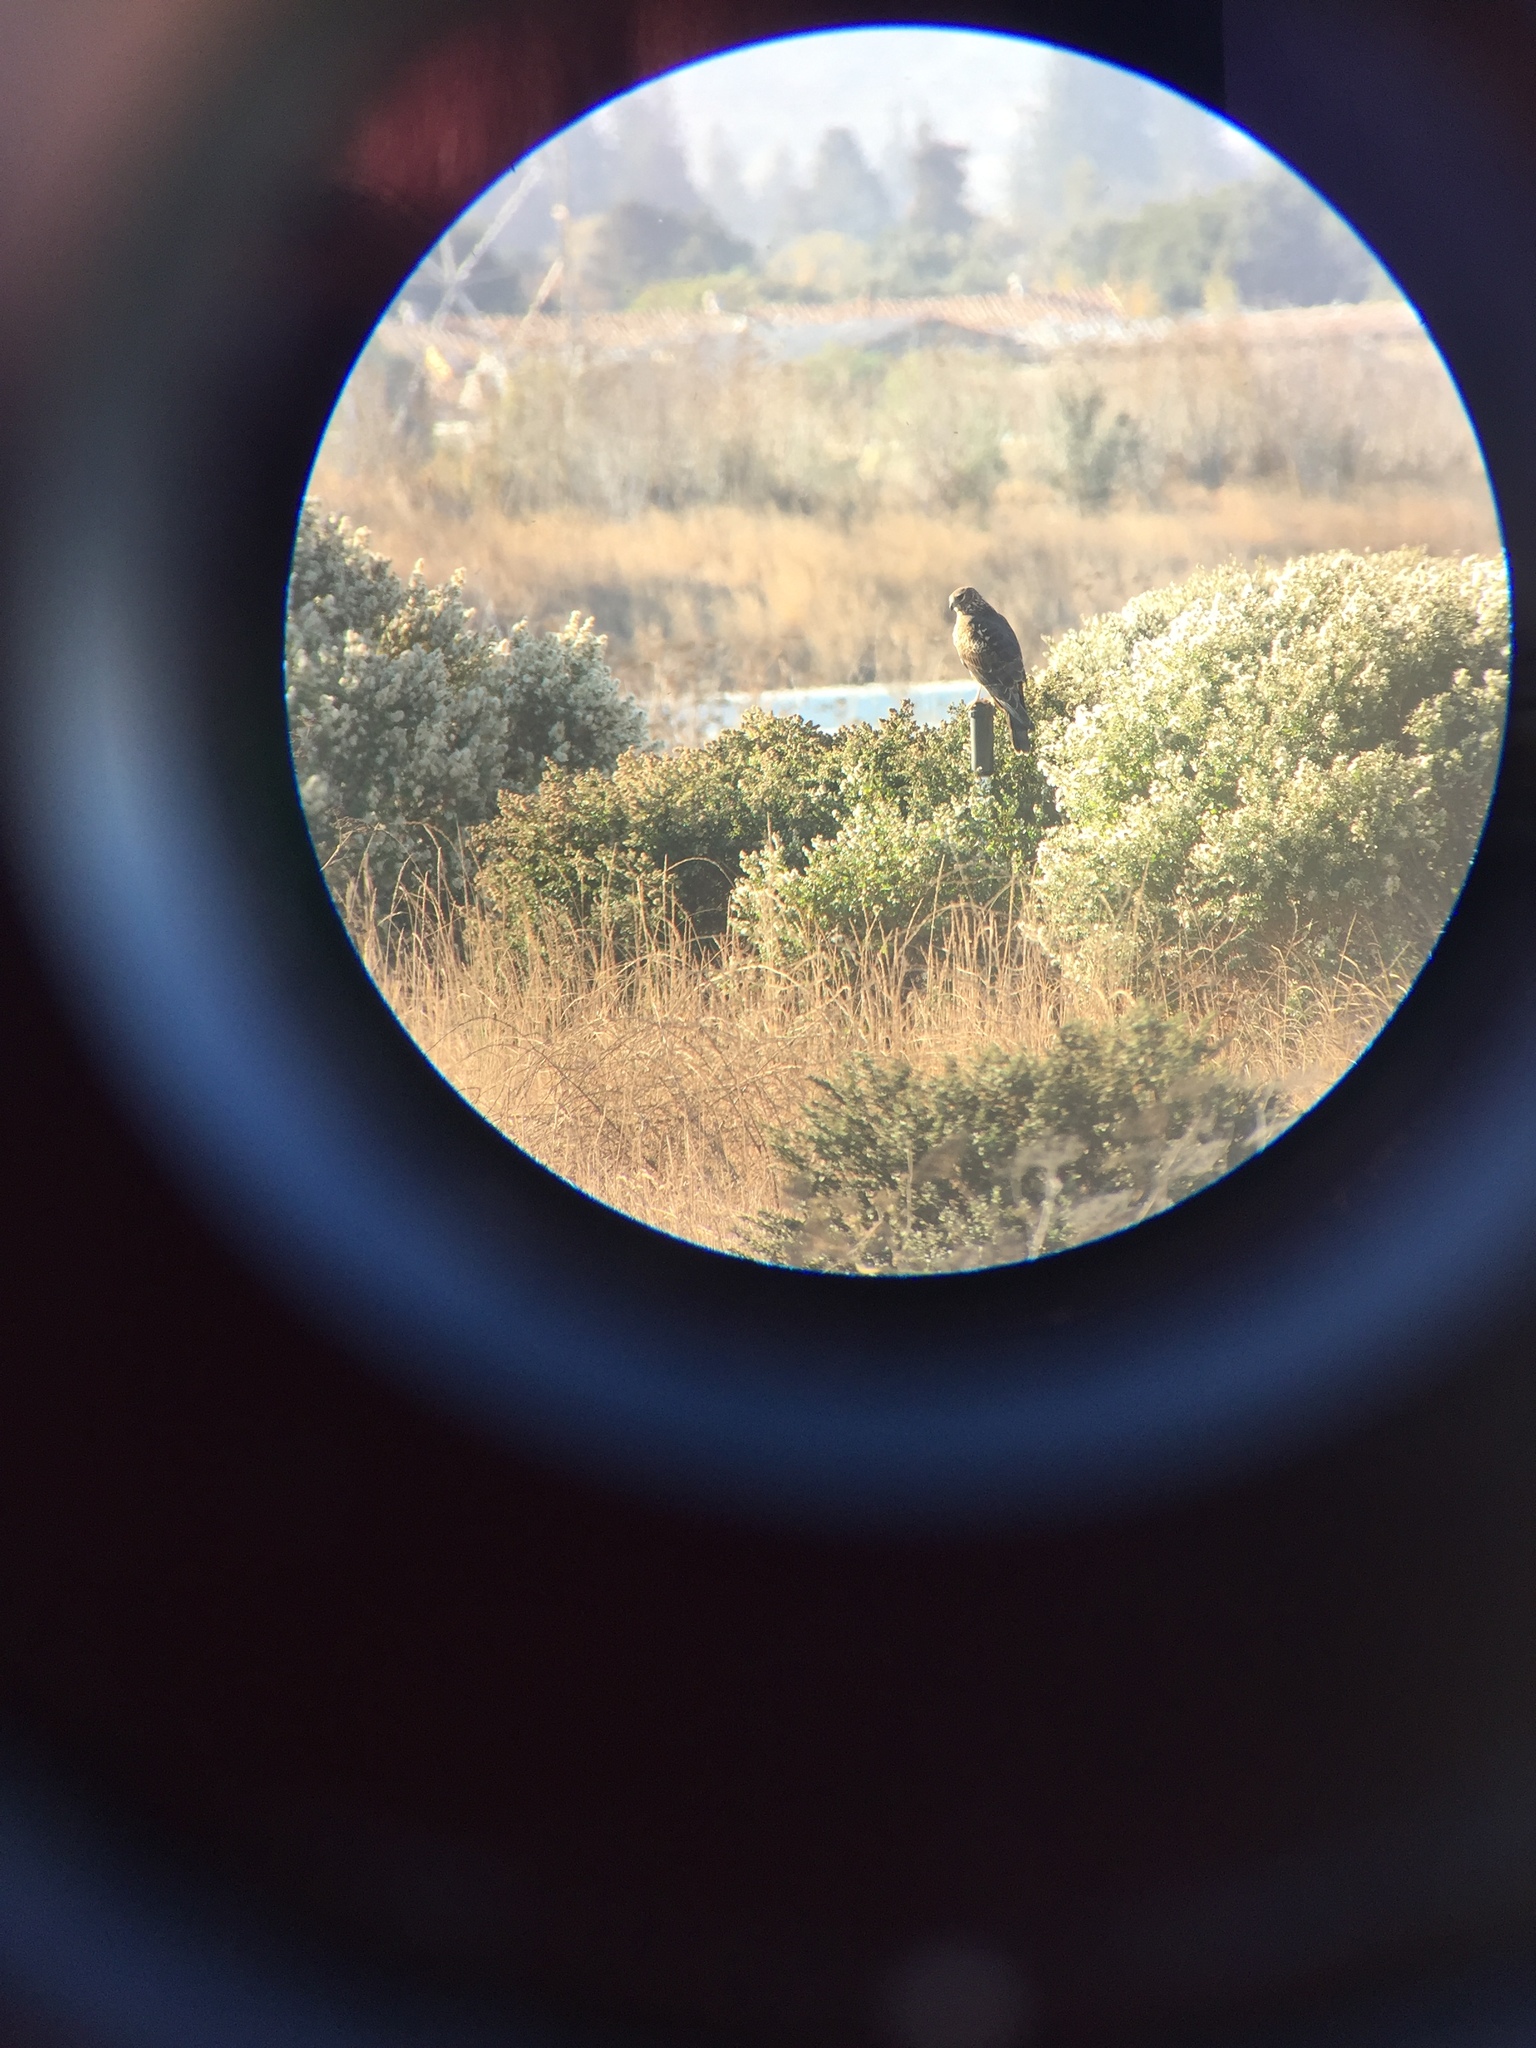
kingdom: Animalia
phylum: Chordata
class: Aves
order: Accipitriformes
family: Accipitridae
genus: Circus
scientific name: Circus cyaneus
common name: Hen harrier
